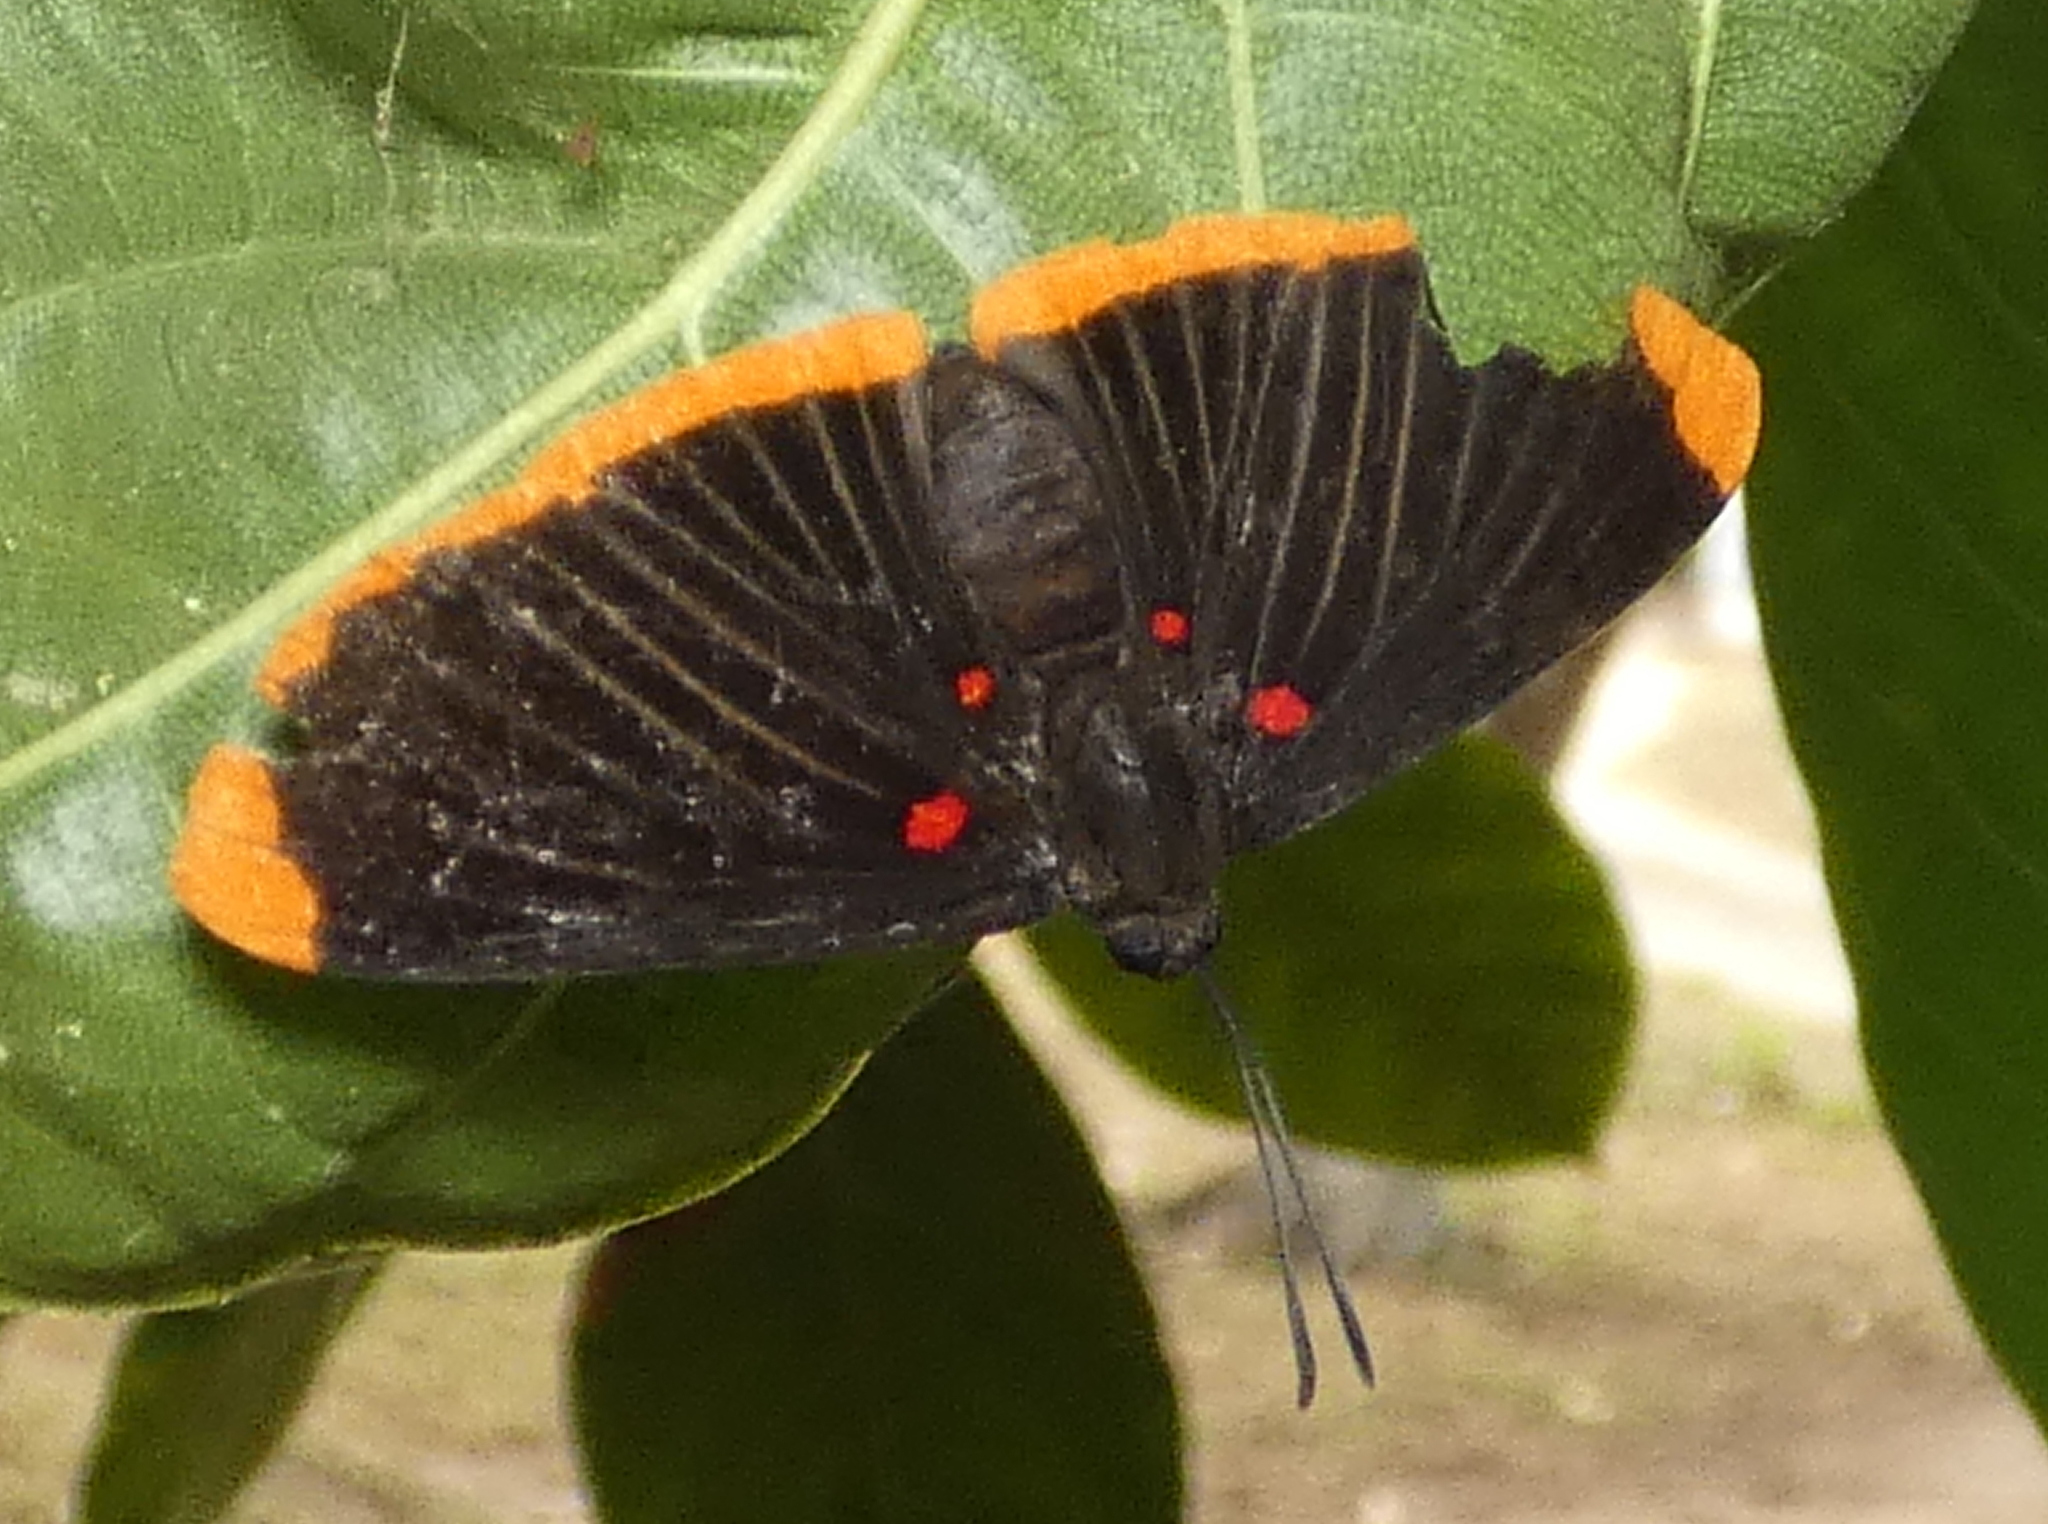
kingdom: Animalia
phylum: Arthropoda
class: Insecta
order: Lepidoptera
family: Lycaenidae
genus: Melanis
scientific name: Melanis smithiae
